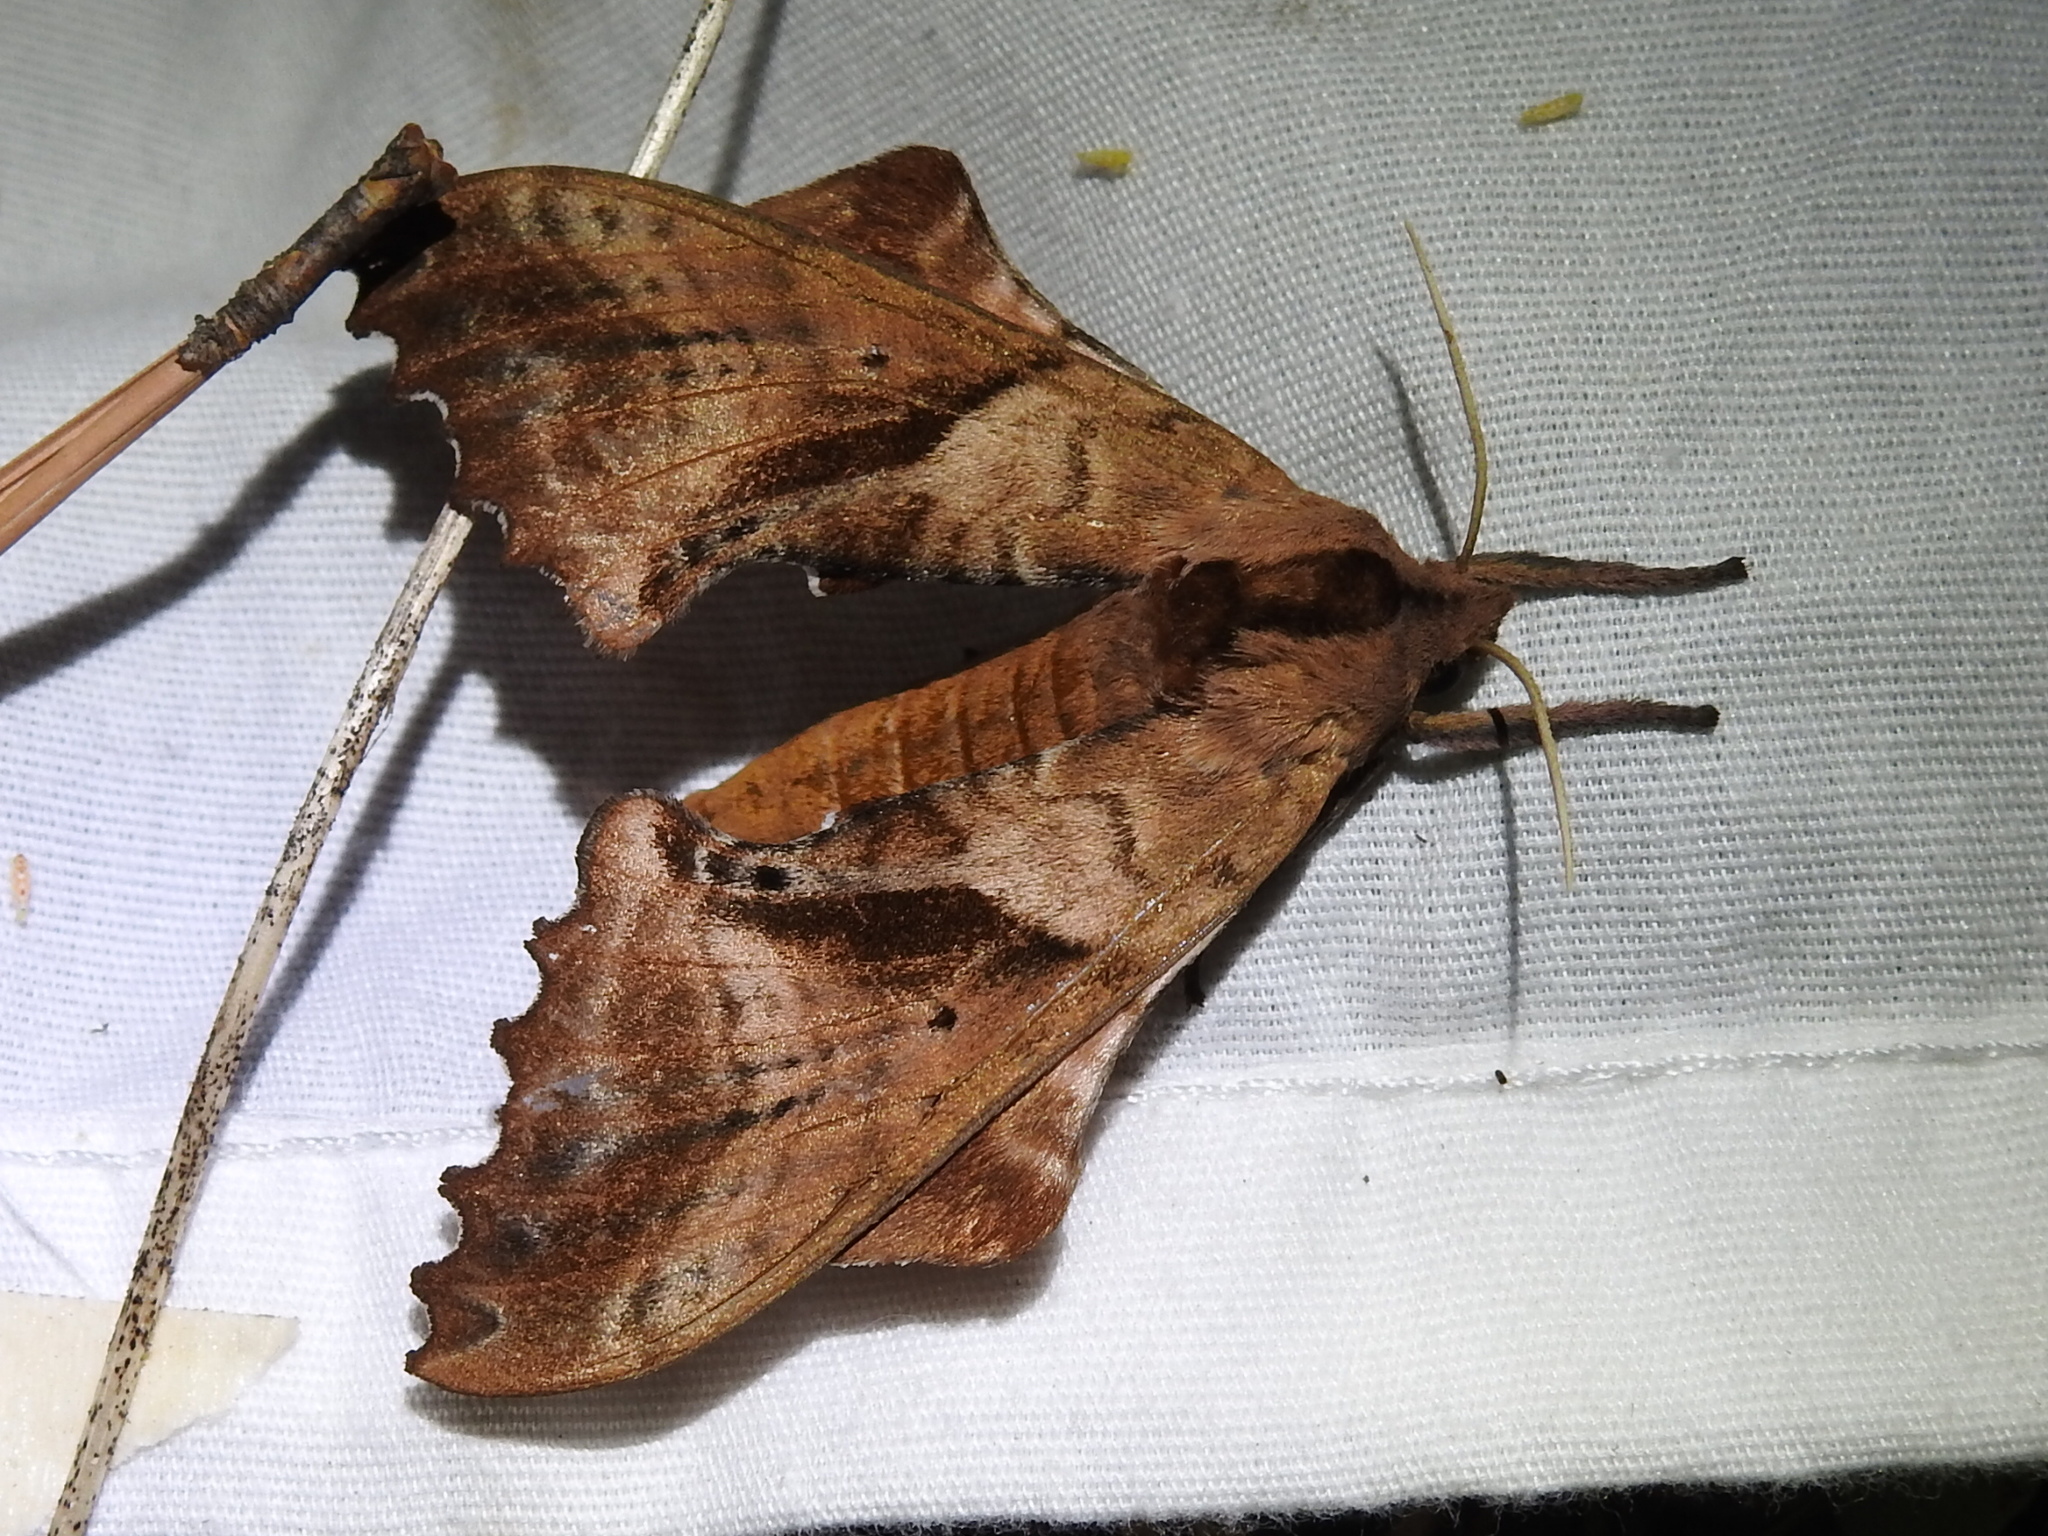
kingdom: Animalia
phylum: Arthropoda
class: Insecta
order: Lepidoptera
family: Sphingidae
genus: Paonias
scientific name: Paonias excaecata
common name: Blind-eyed sphinx
